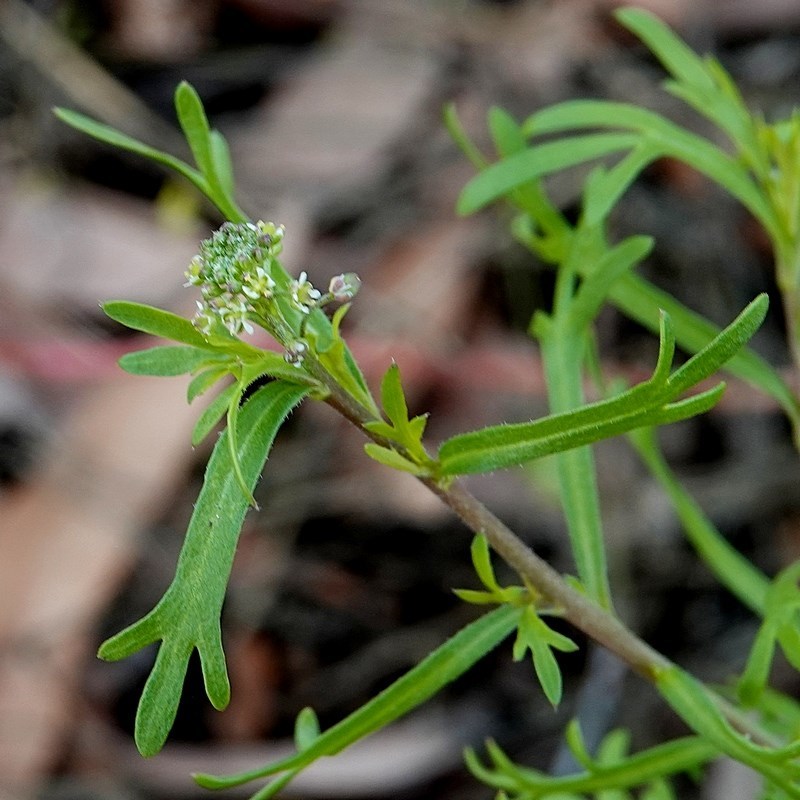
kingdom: Plantae
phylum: Tracheophyta
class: Magnoliopsida
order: Brassicales
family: Brassicaceae
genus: Lepidium
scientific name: Lepidium virginicum
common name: Least pepperwort
